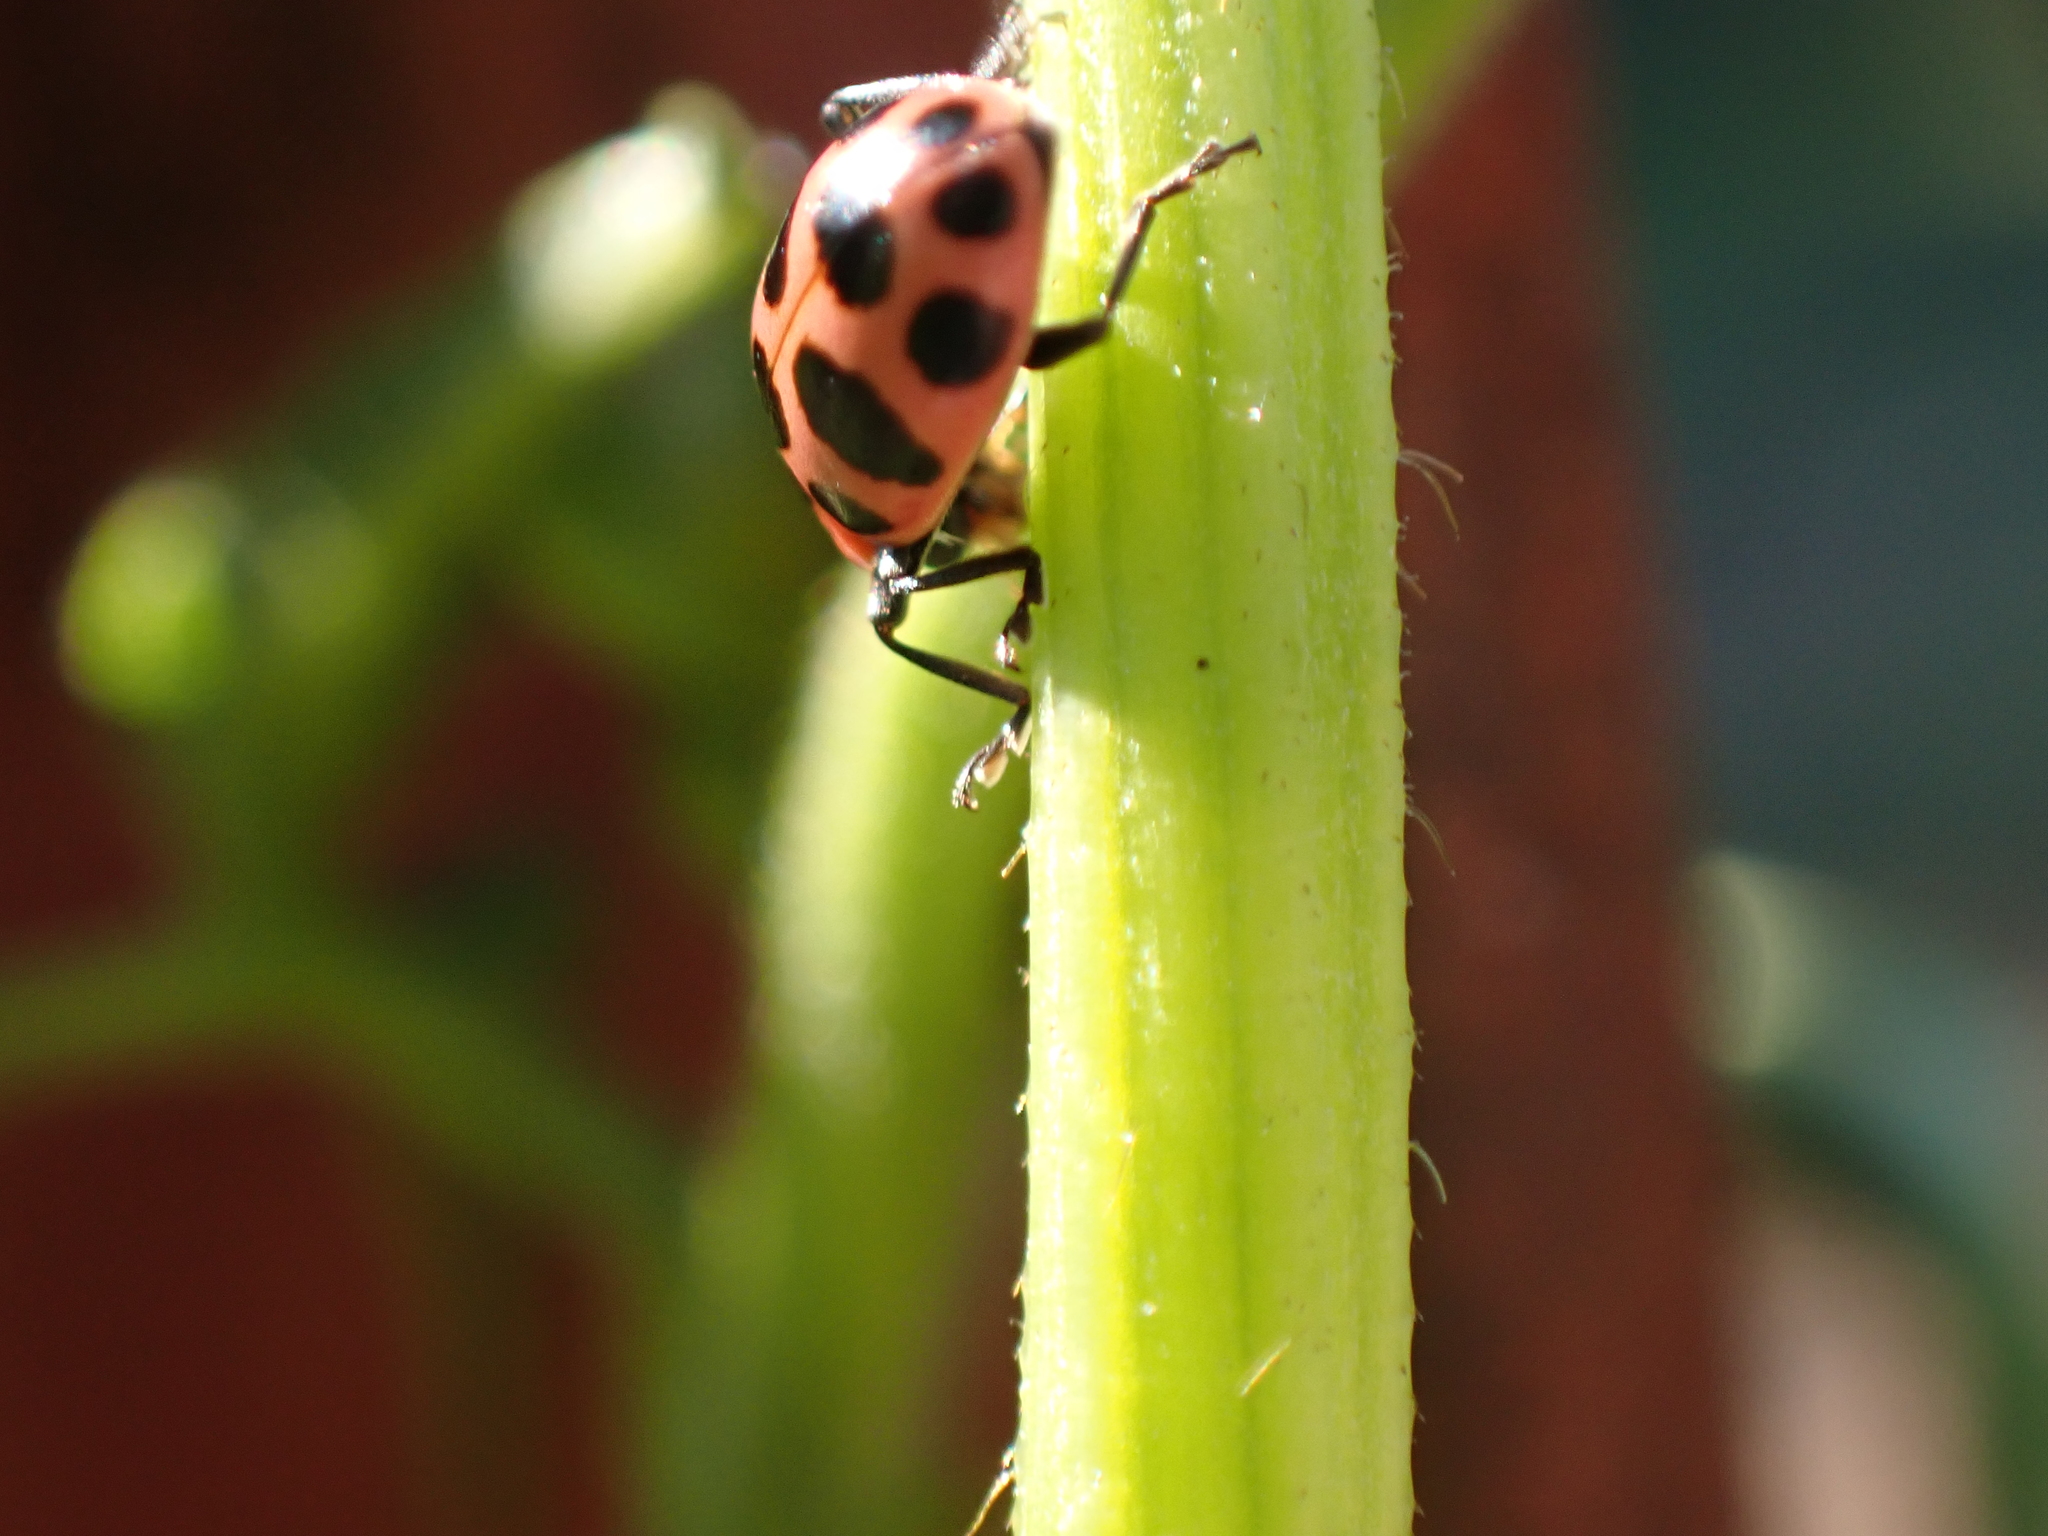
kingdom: Animalia
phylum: Arthropoda
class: Insecta
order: Coleoptera
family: Coccinellidae
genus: Coleomegilla
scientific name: Coleomegilla maculata
